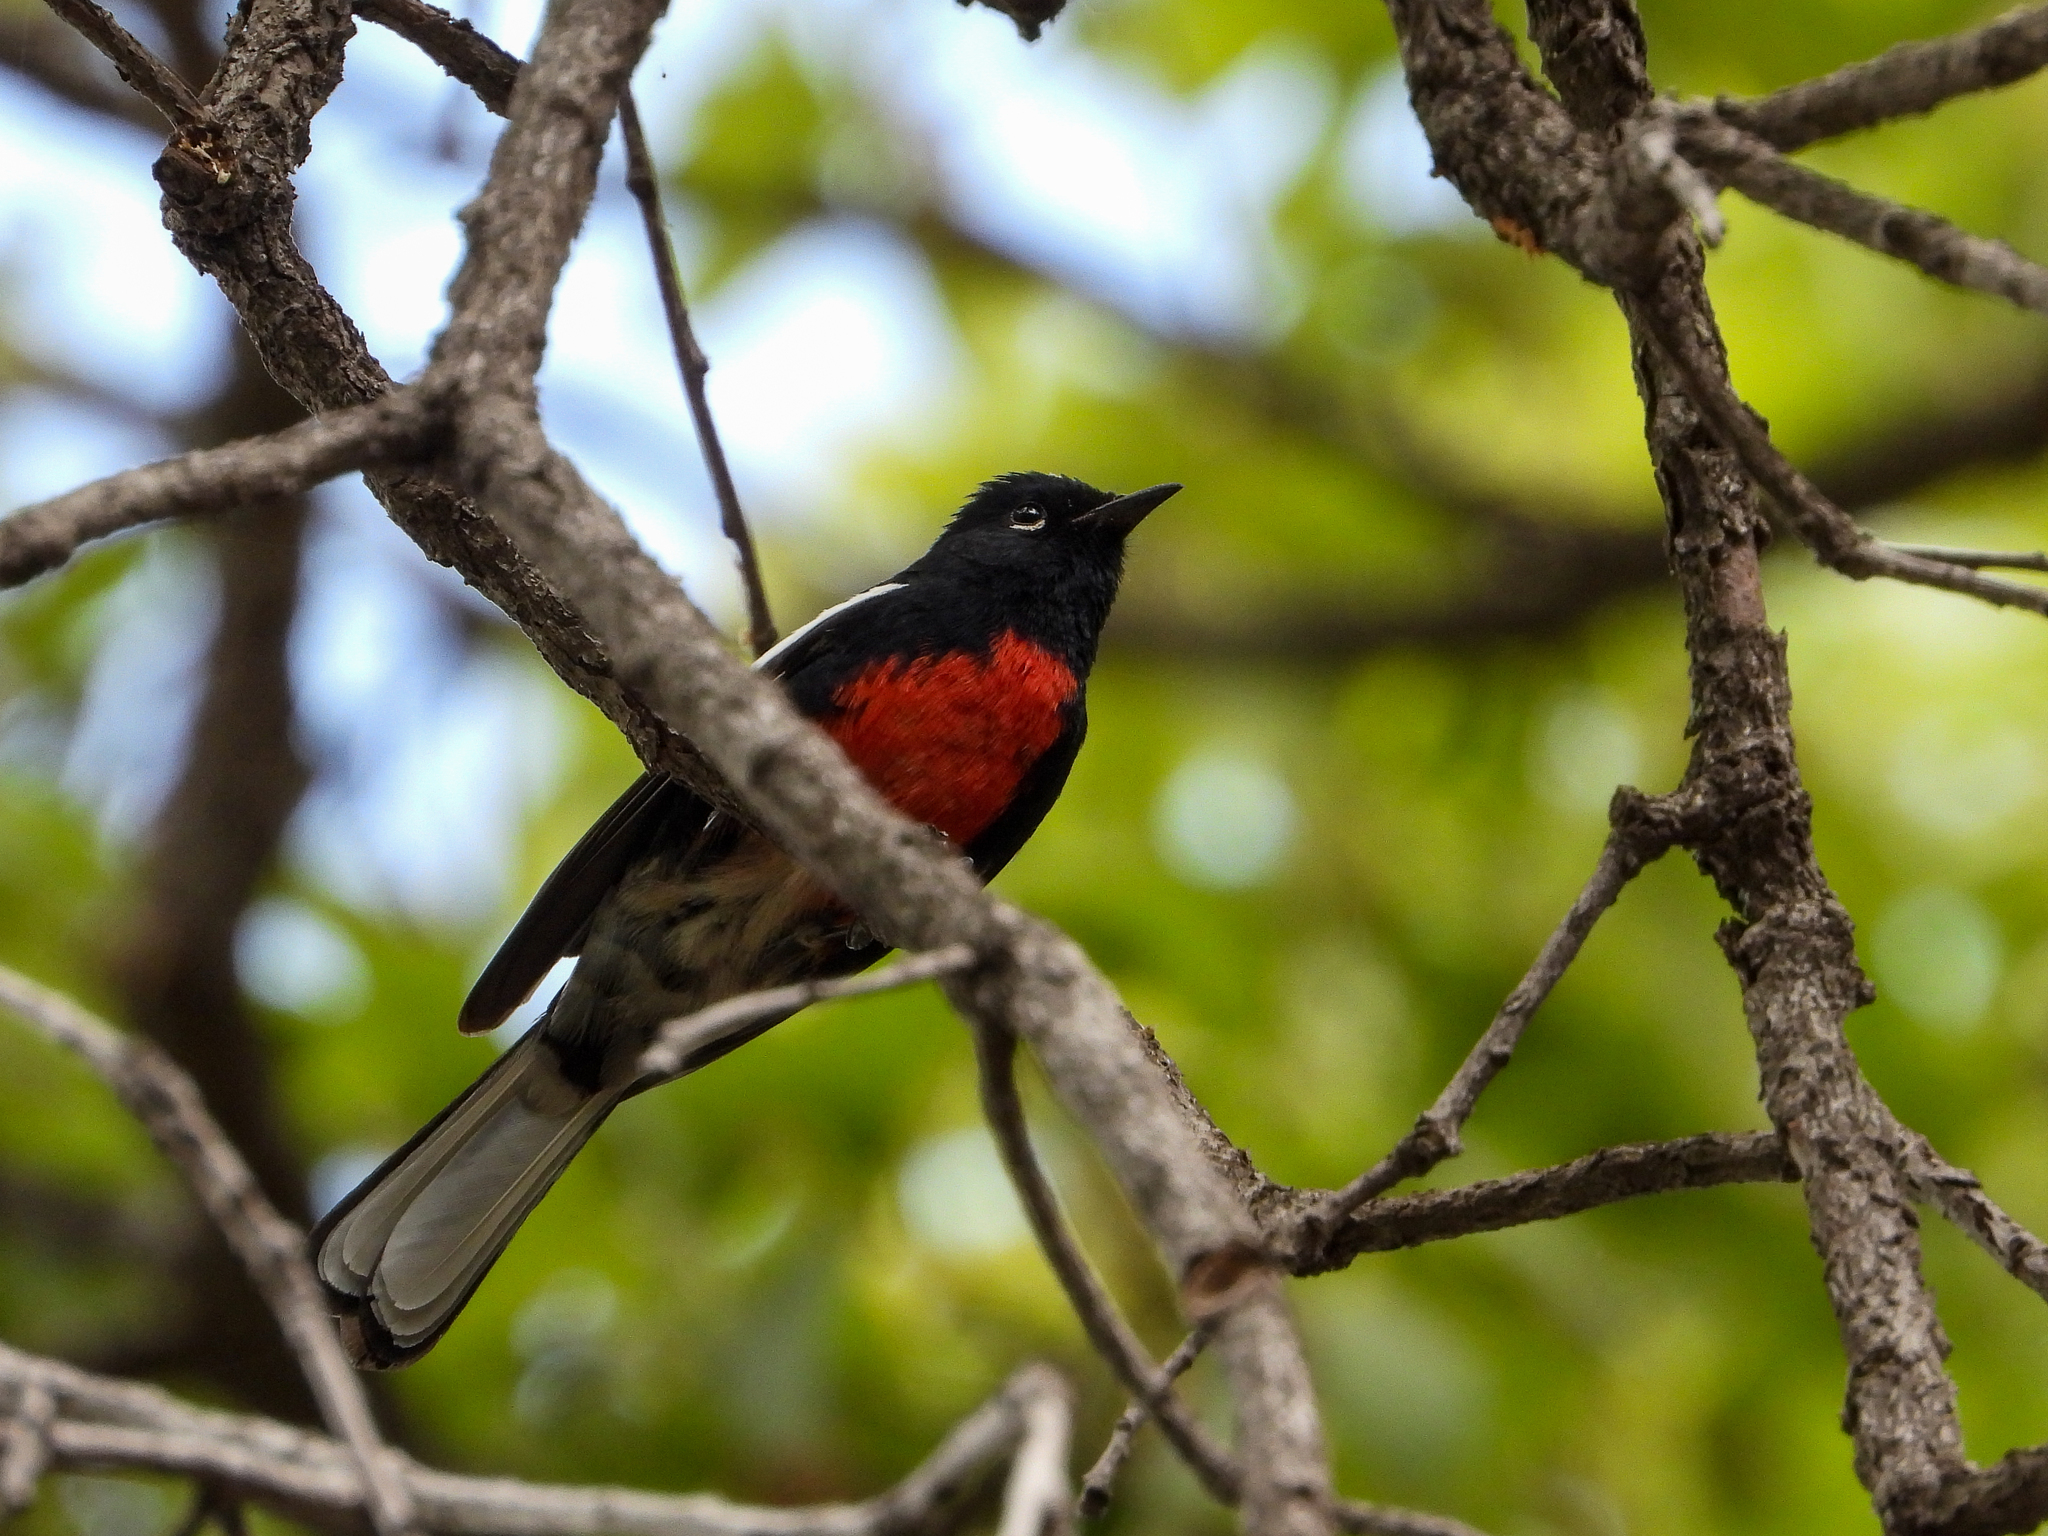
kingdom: Animalia
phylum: Chordata
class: Aves
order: Passeriformes
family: Parulidae
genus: Myioborus
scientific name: Myioborus pictus
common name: Painted whitestart
